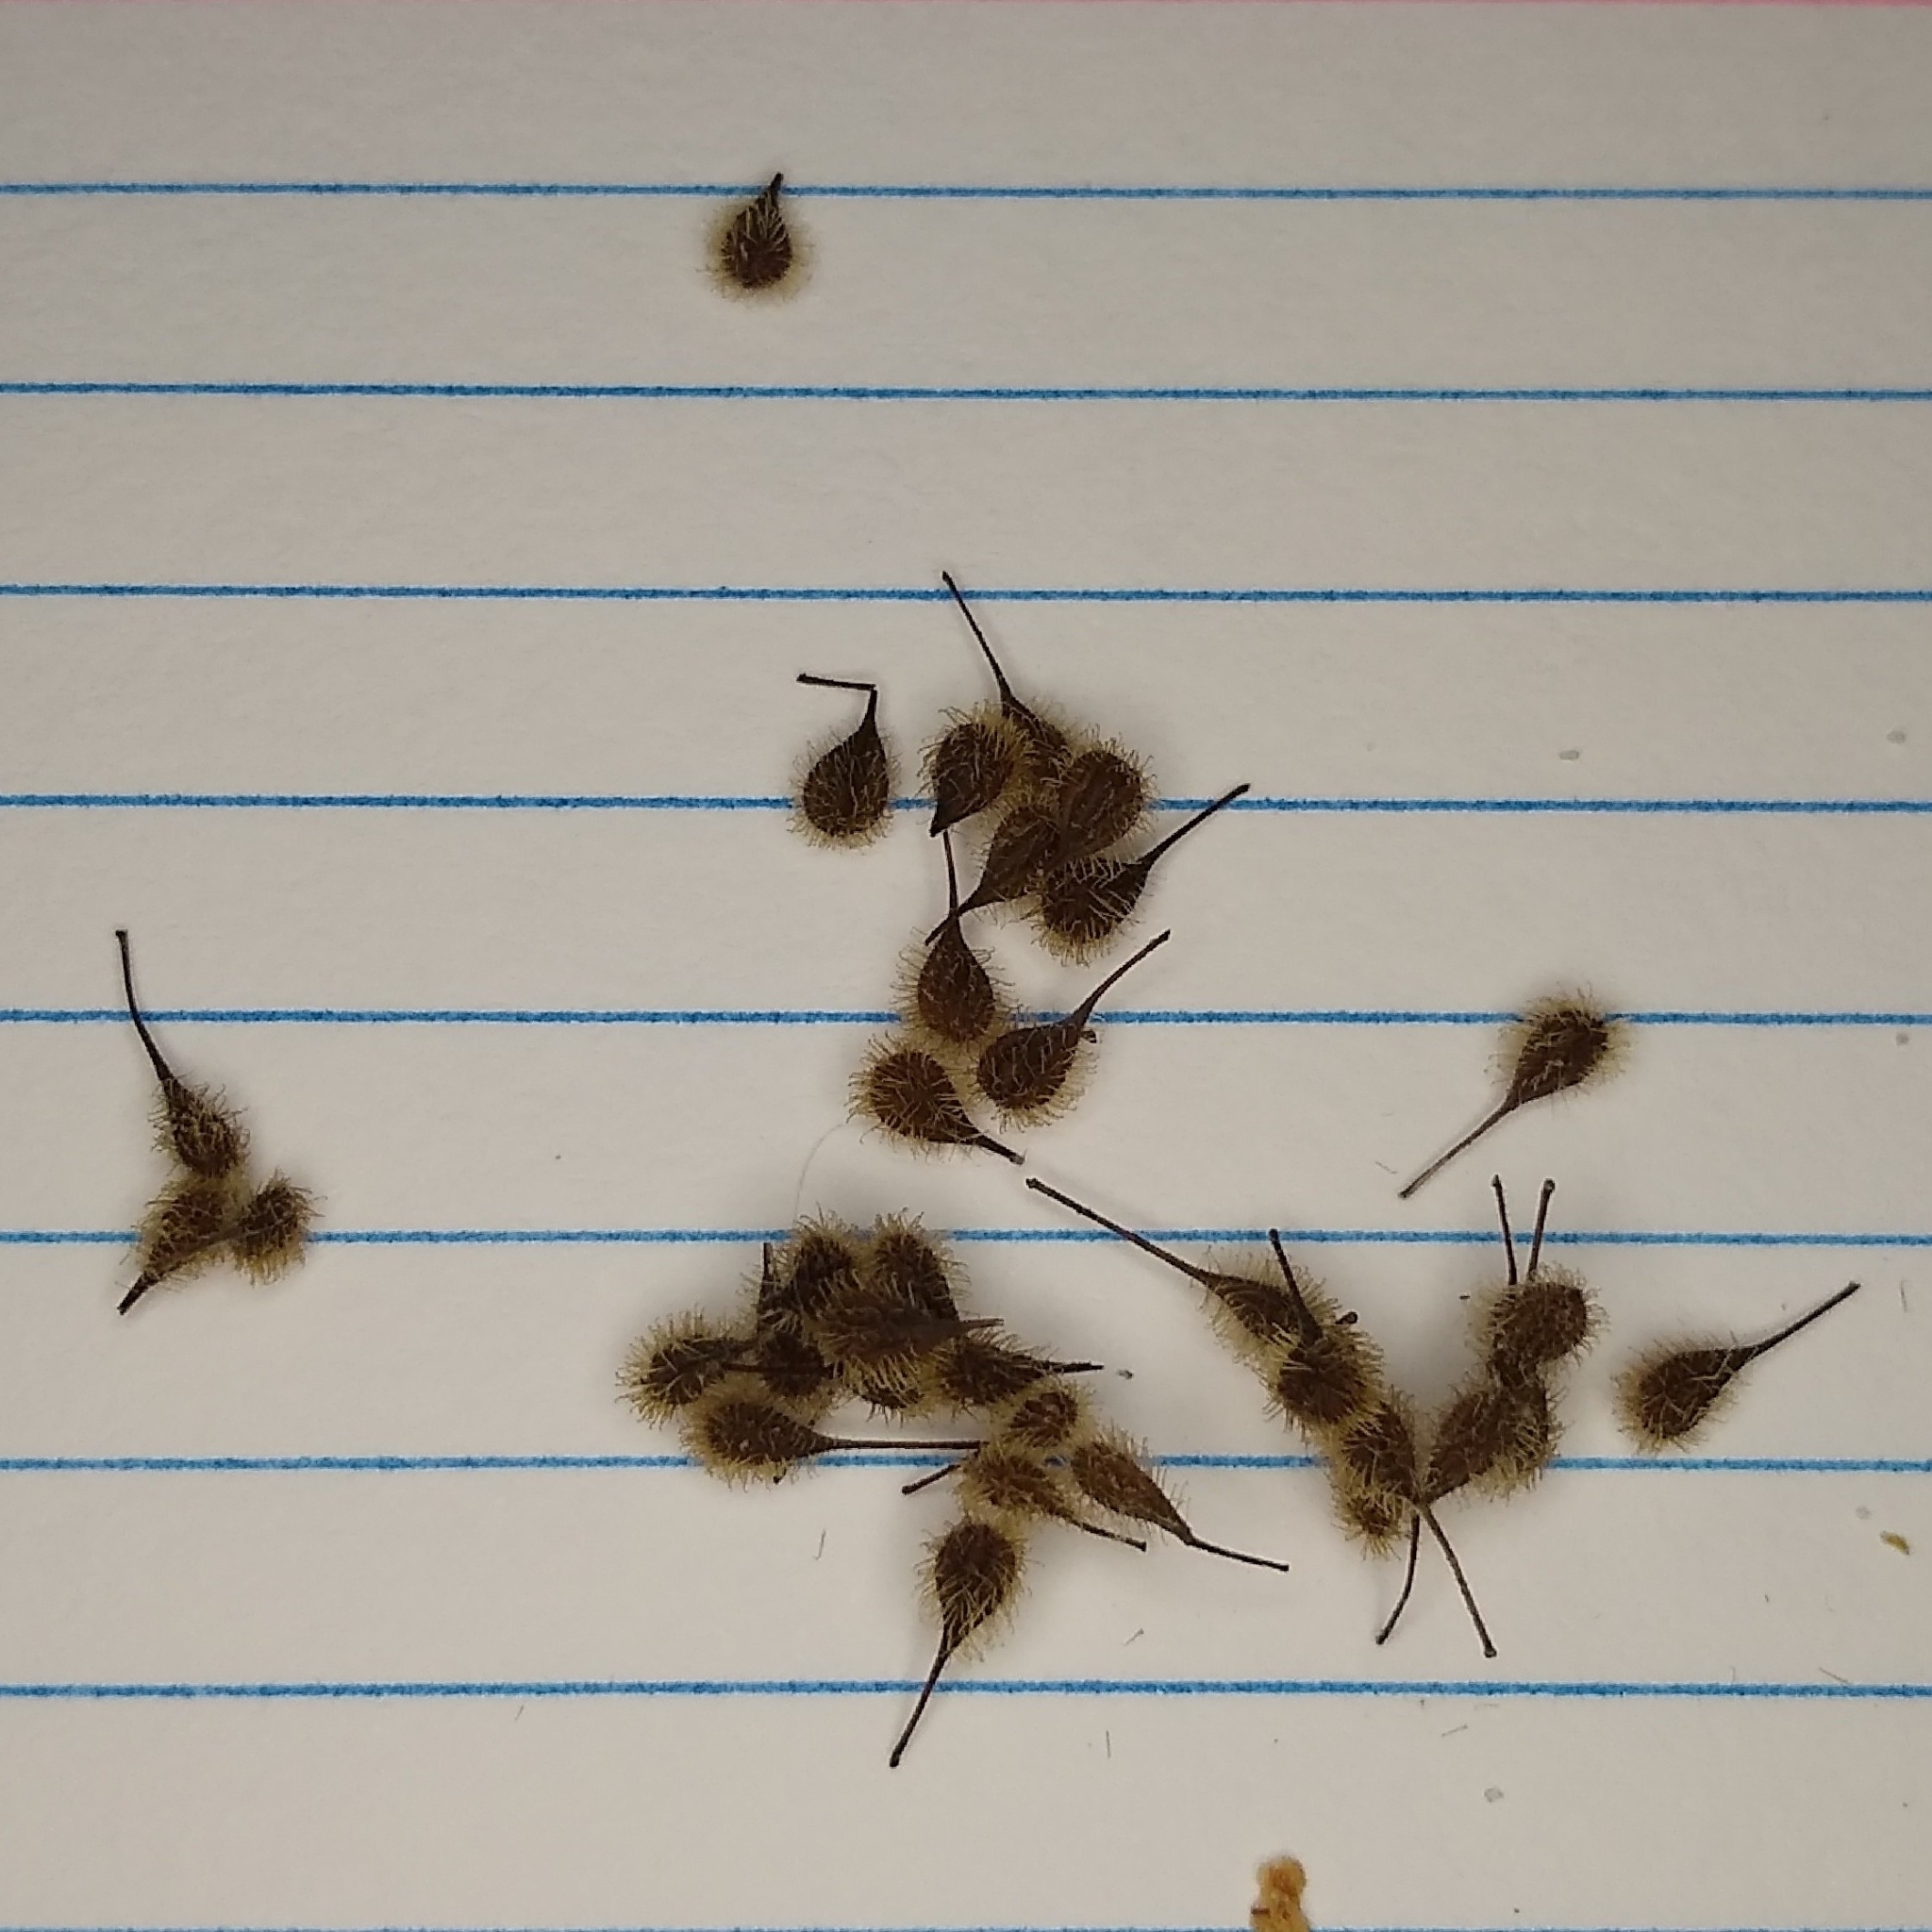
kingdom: Plantae
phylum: Tracheophyta
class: Magnoliopsida
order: Myrtales
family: Onagraceae
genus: Circaea
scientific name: Circaea canadensis
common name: Broad-leaved enchanter's nightshade
